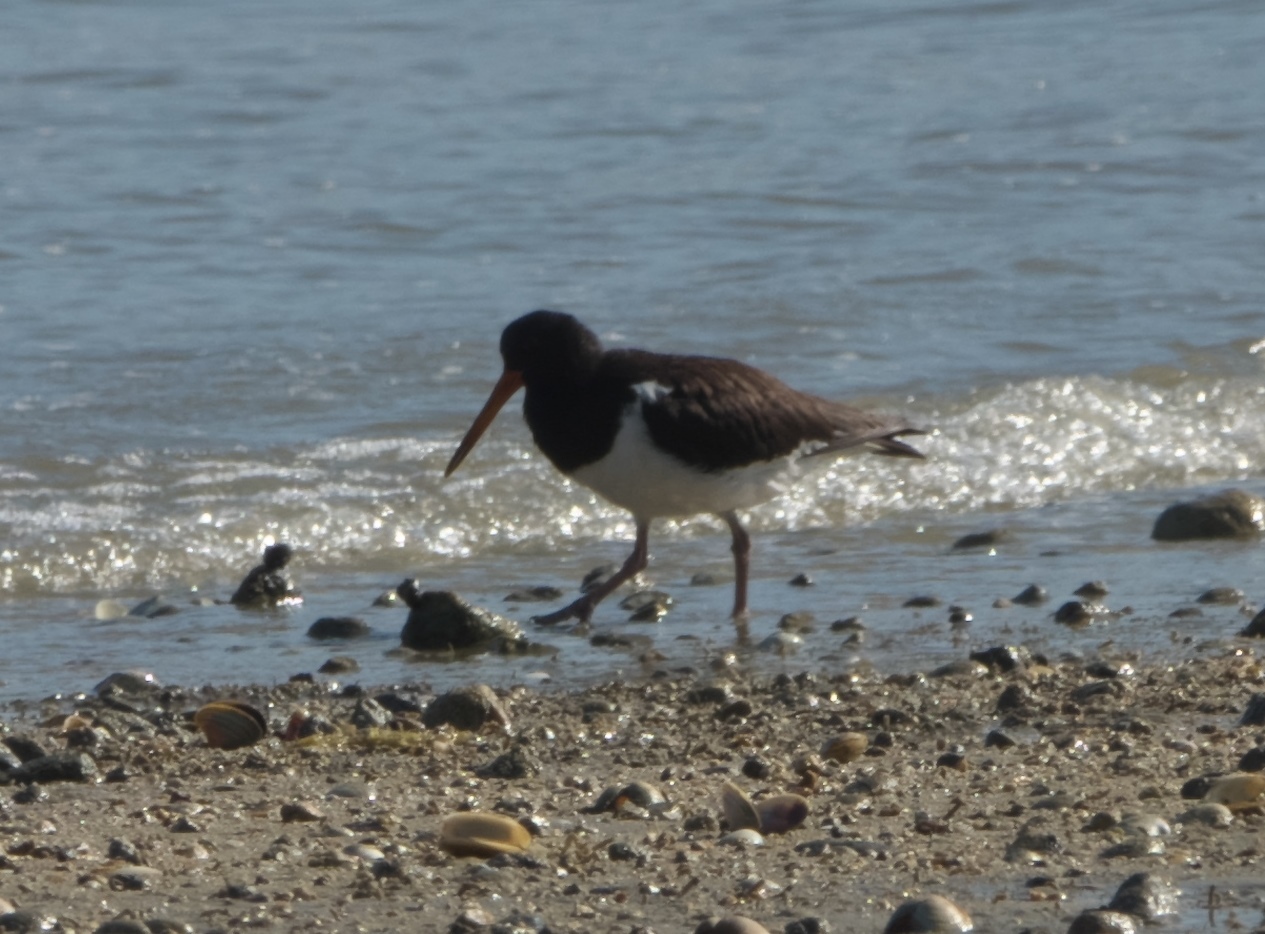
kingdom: Animalia
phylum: Chordata
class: Aves
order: Charadriiformes
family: Haematopodidae
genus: Haematopus
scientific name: Haematopus finschi
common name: South island oystercatcher
